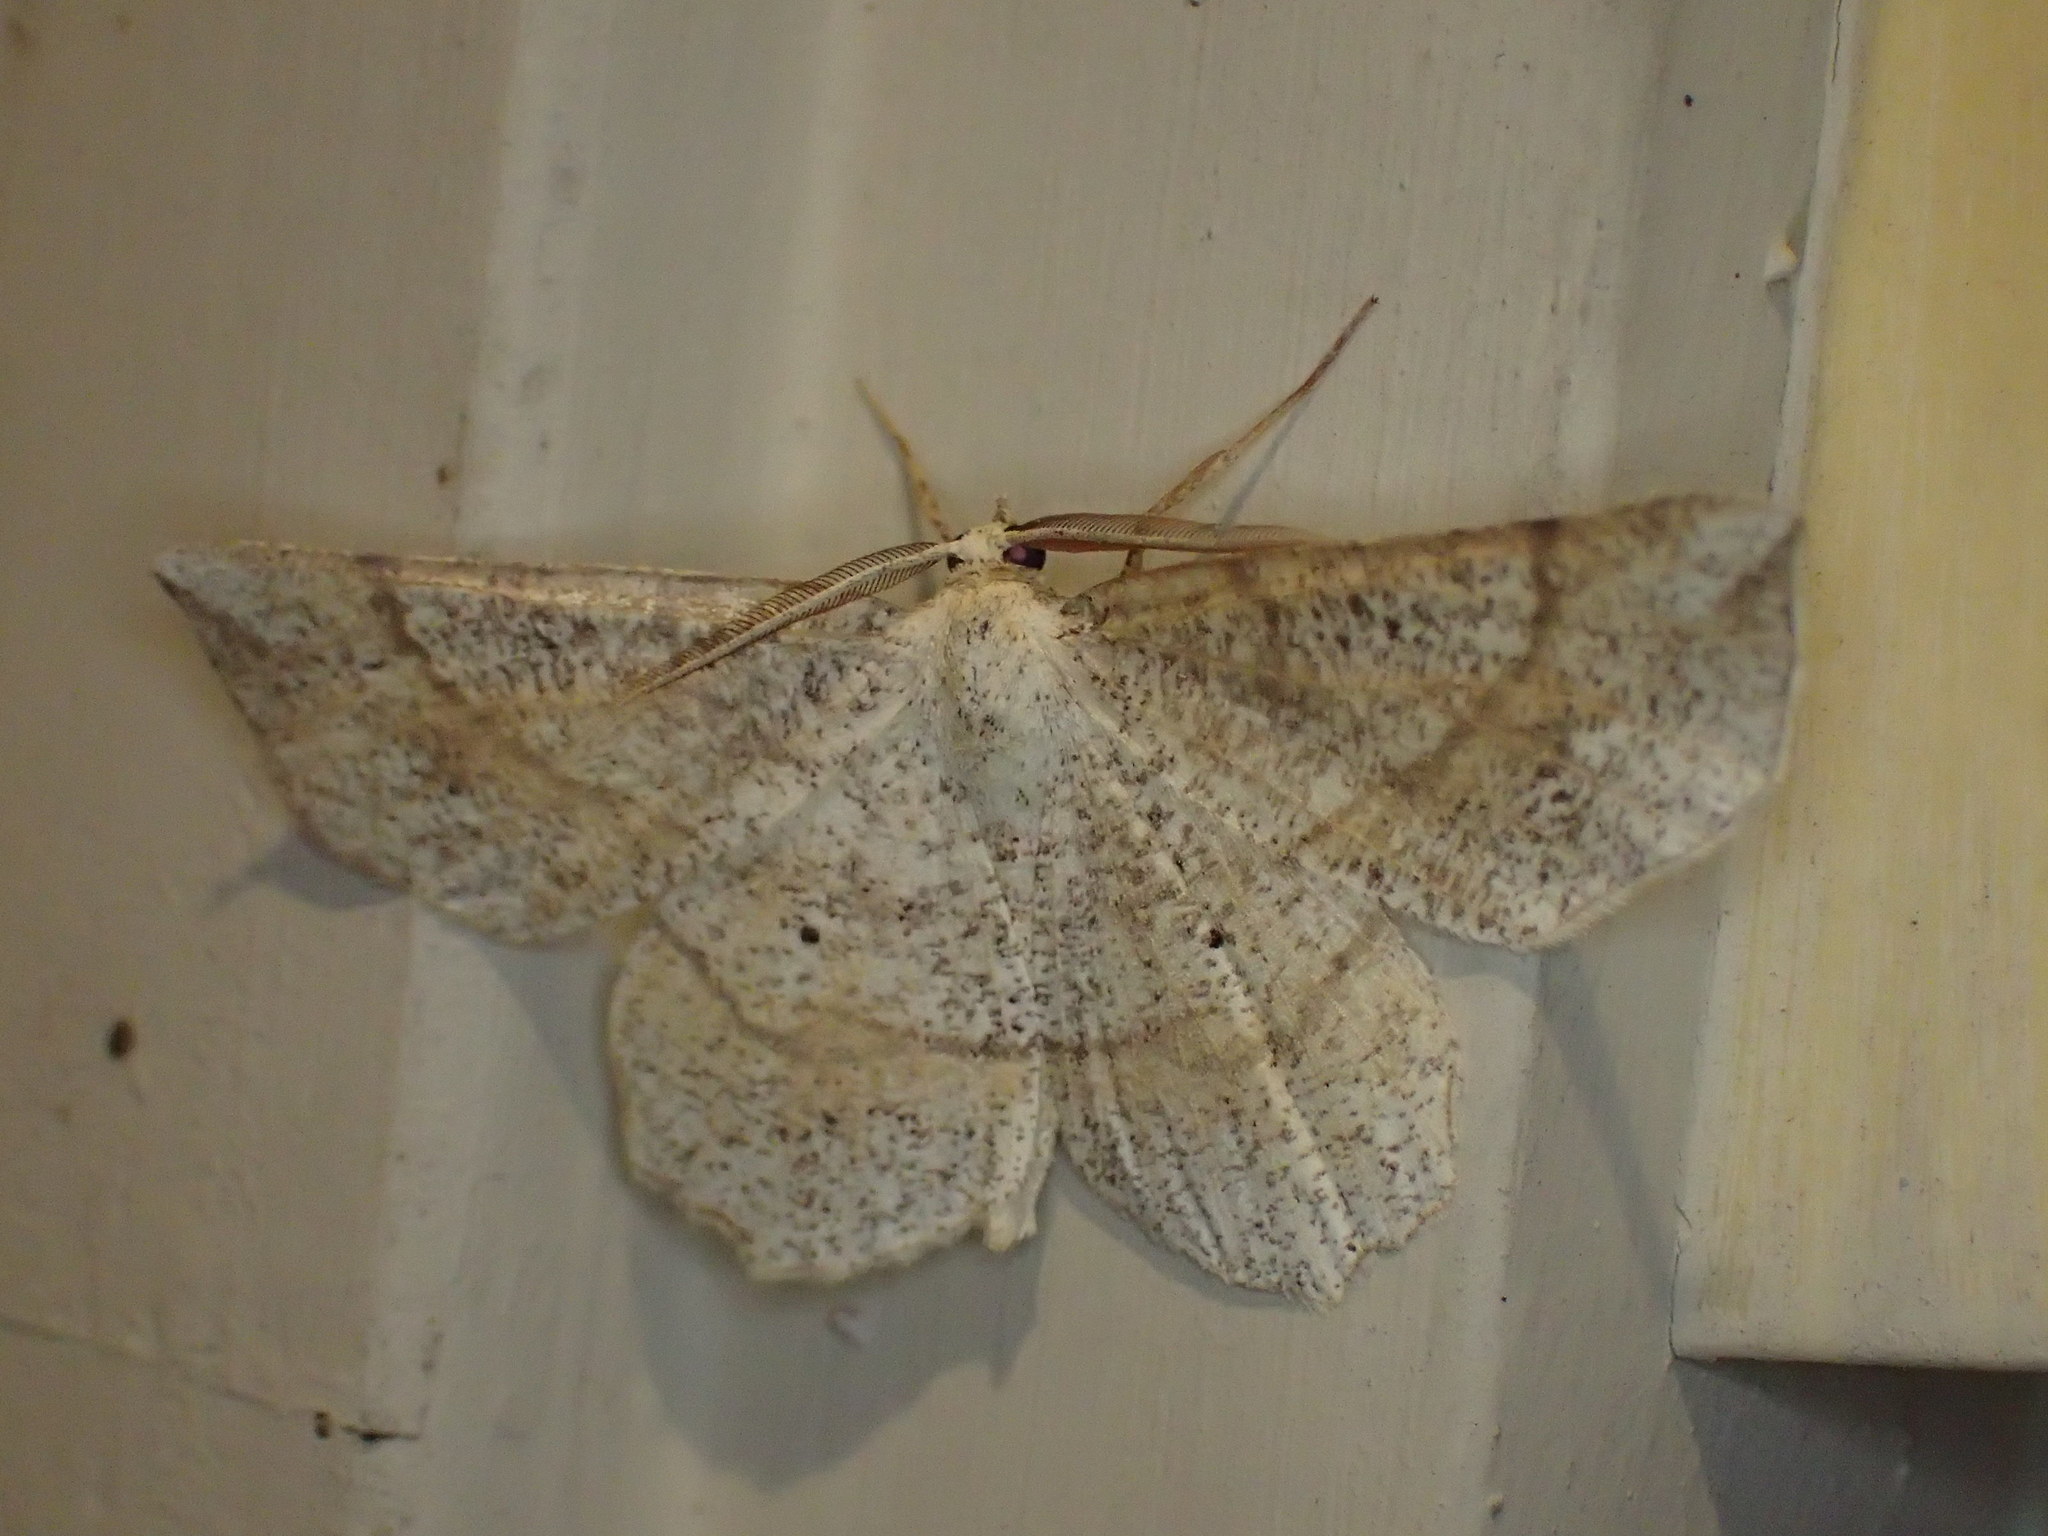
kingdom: Animalia
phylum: Arthropoda
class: Insecta
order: Lepidoptera
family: Geometridae
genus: Euchlaena
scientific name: Euchlaena deplanaria
